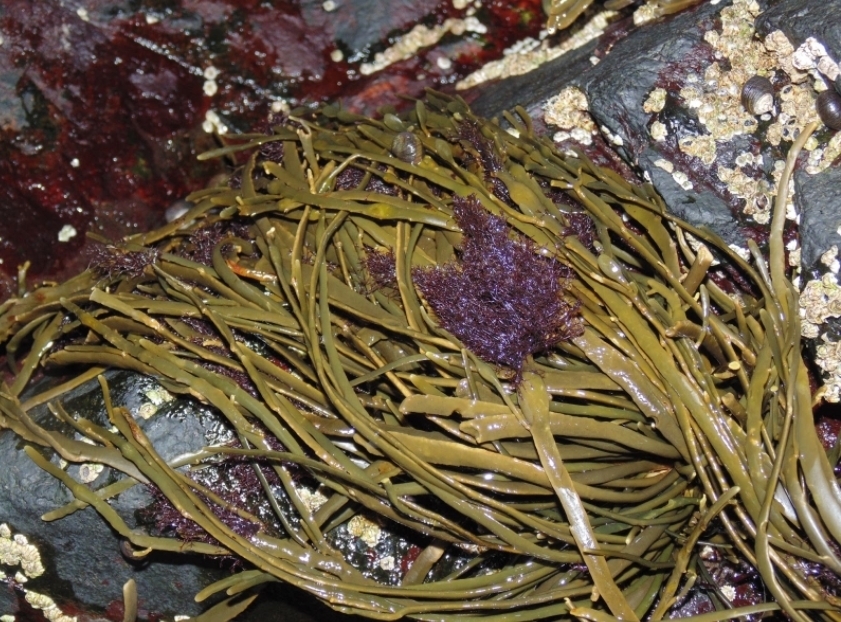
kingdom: Plantae
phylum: Rhodophyta
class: Florideophyceae
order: Ceramiales
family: Rhodomelaceae
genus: Vertebrata
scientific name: Vertebrata lanosa
